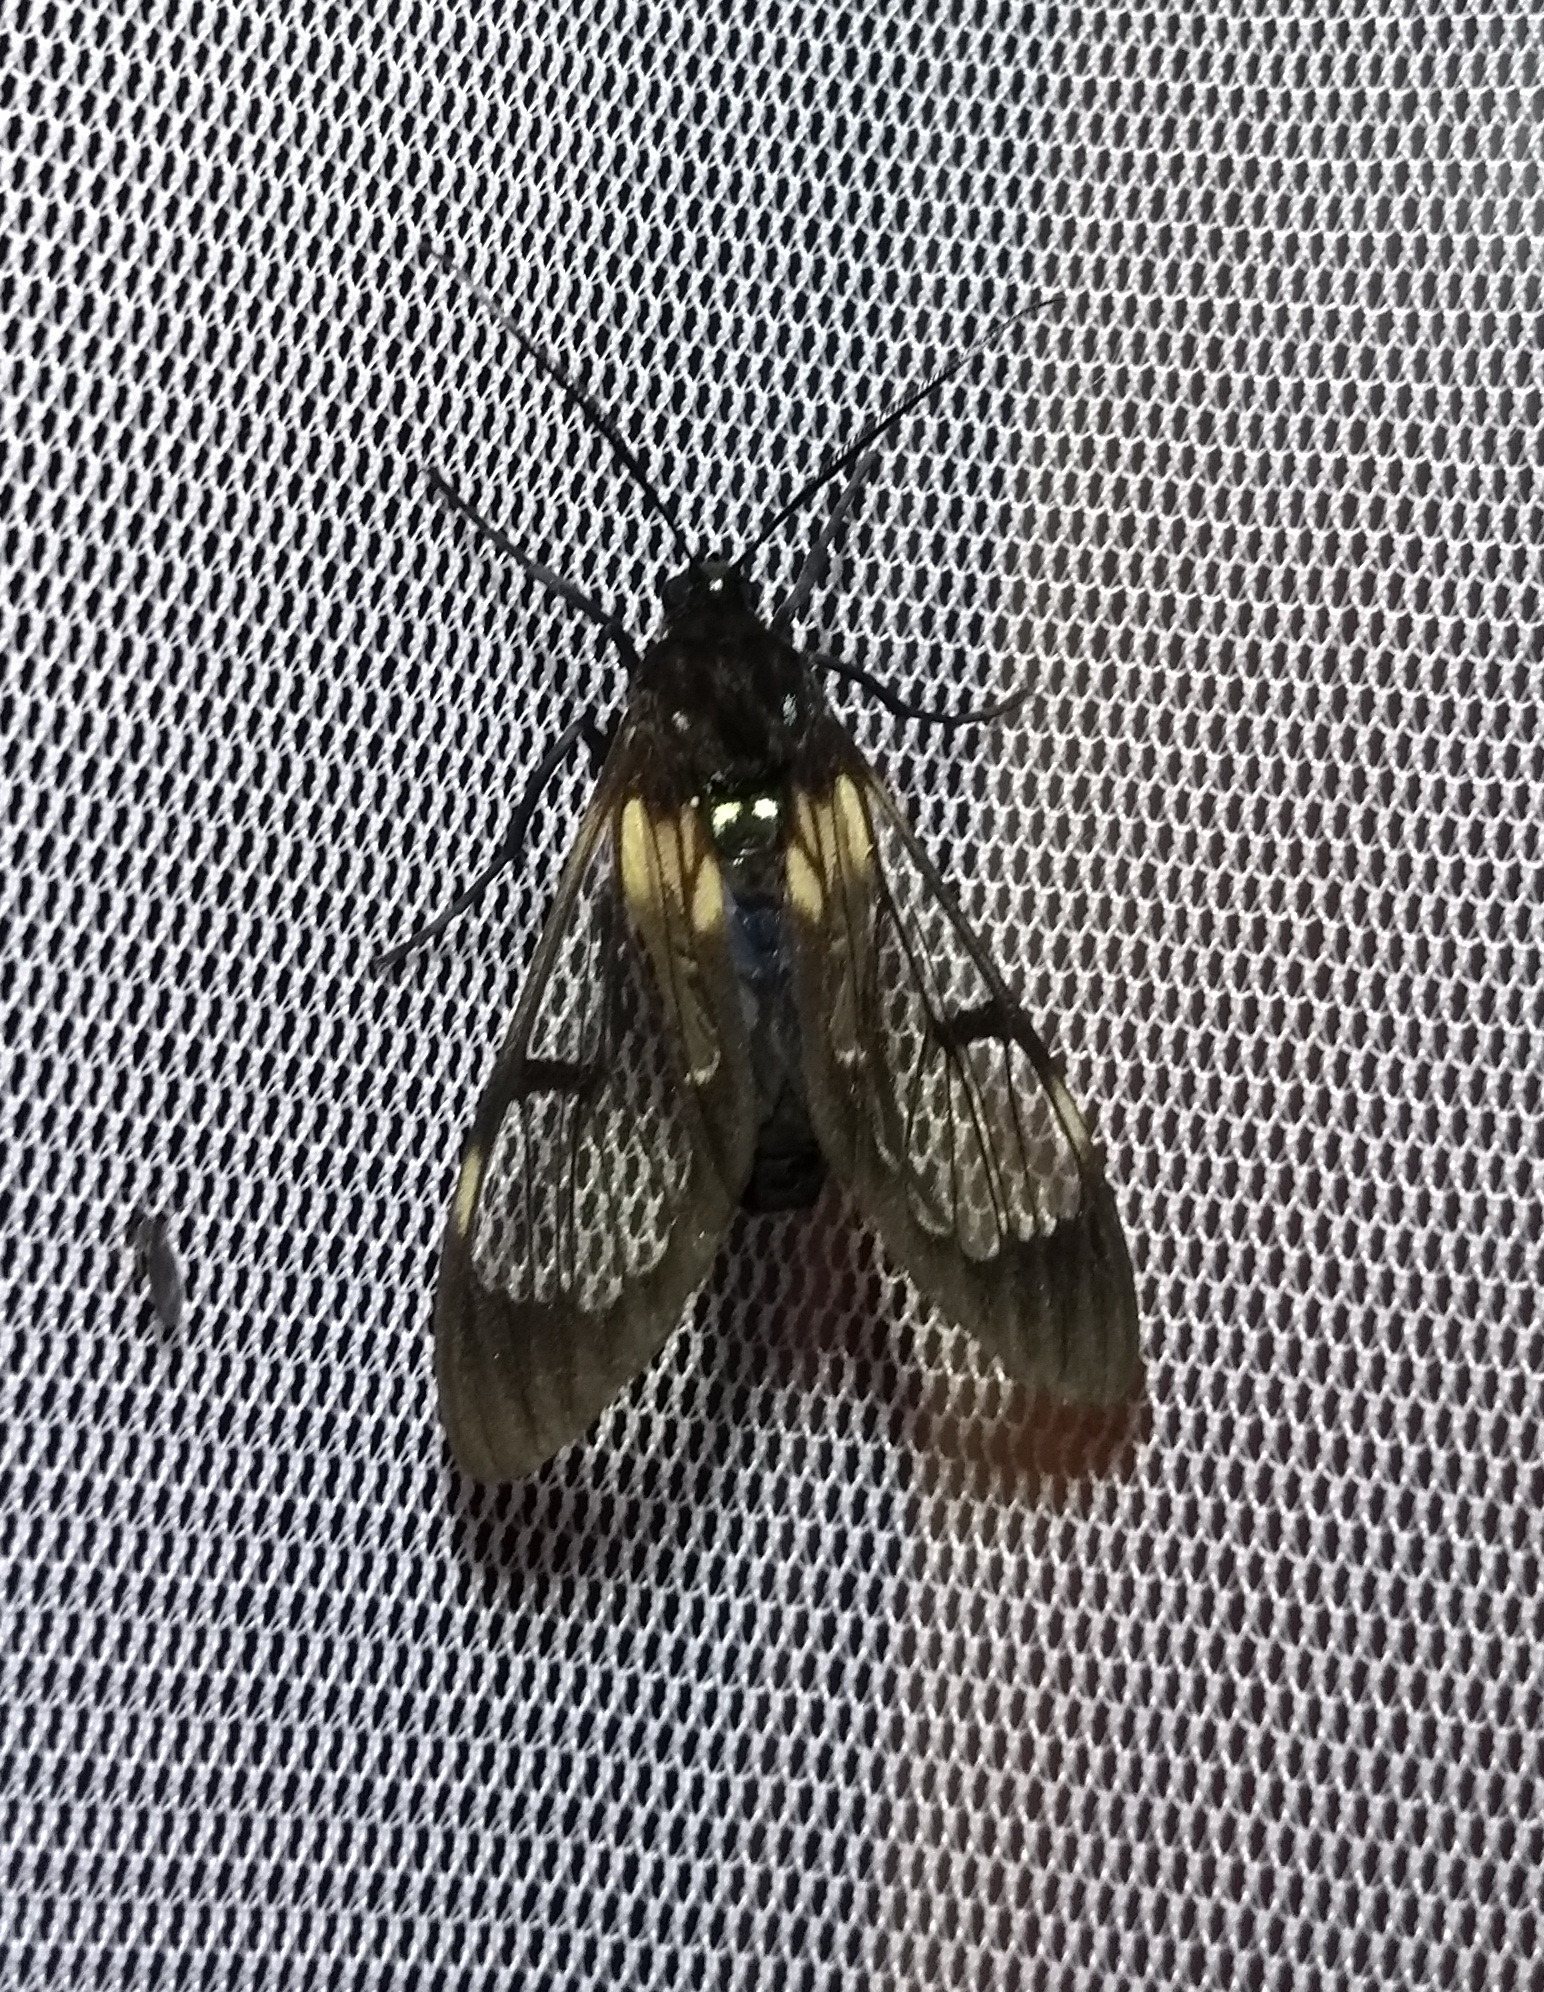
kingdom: Animalia
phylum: Arthropoda
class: Insecta
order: Lepidoptera
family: Erebidae
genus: Neotrichura
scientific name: Neotrichura nigripes
